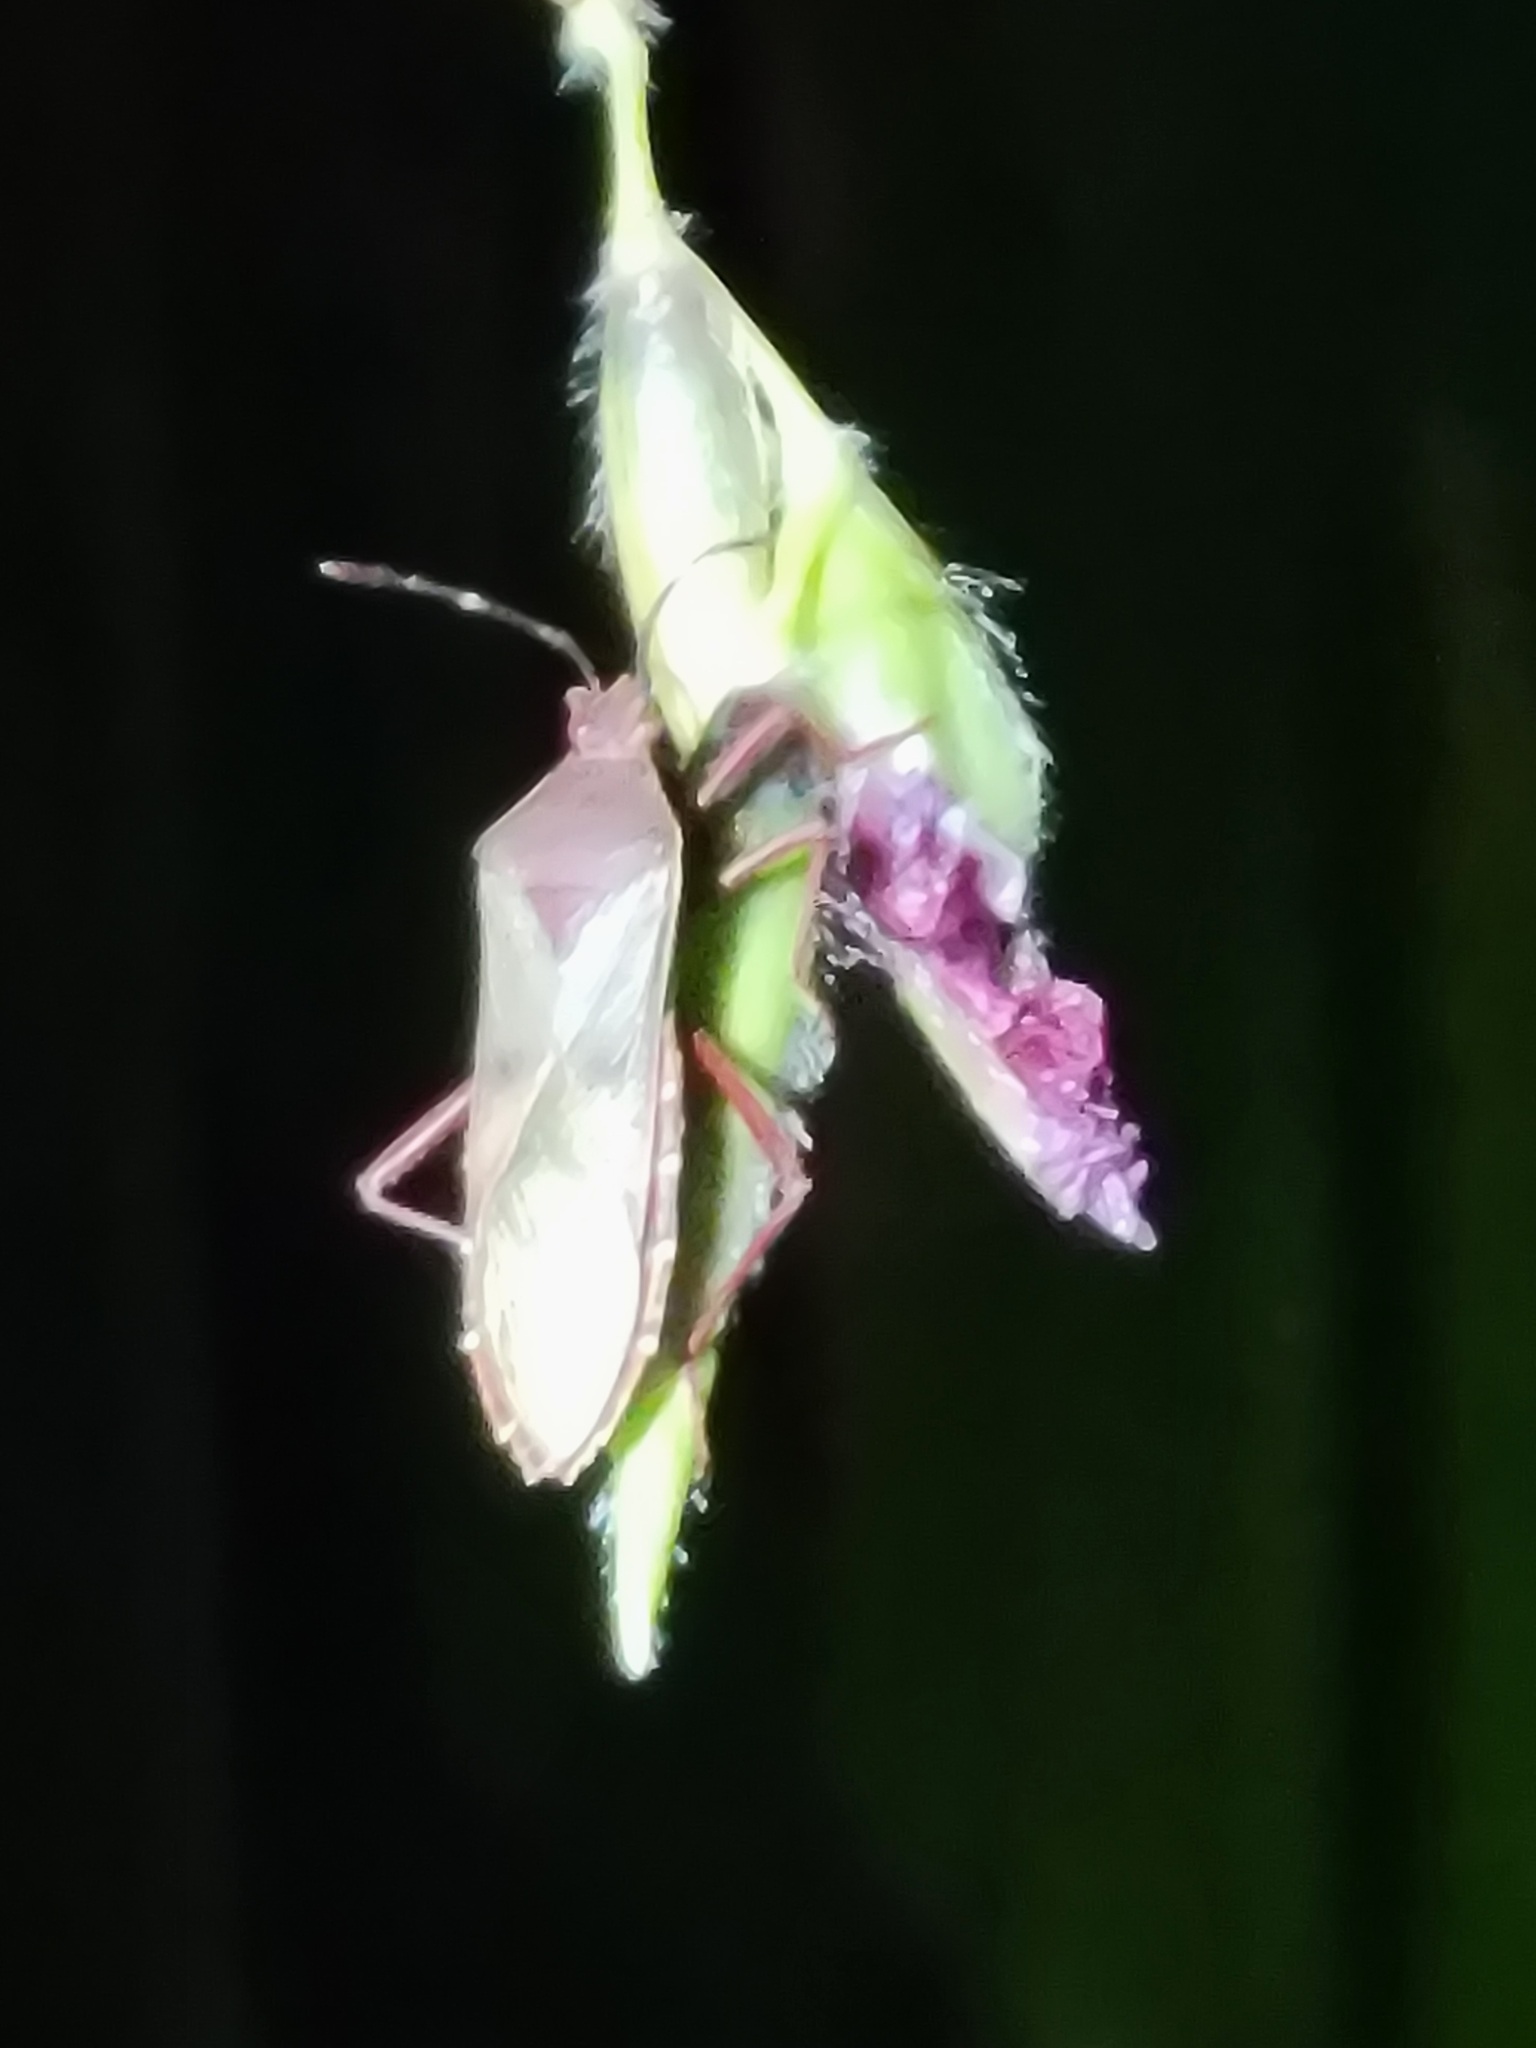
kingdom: Animalia
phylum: Arthropoda
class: Insecta
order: Hemiptera
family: Coreidae
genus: Namacus
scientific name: Namacus annulicornis
